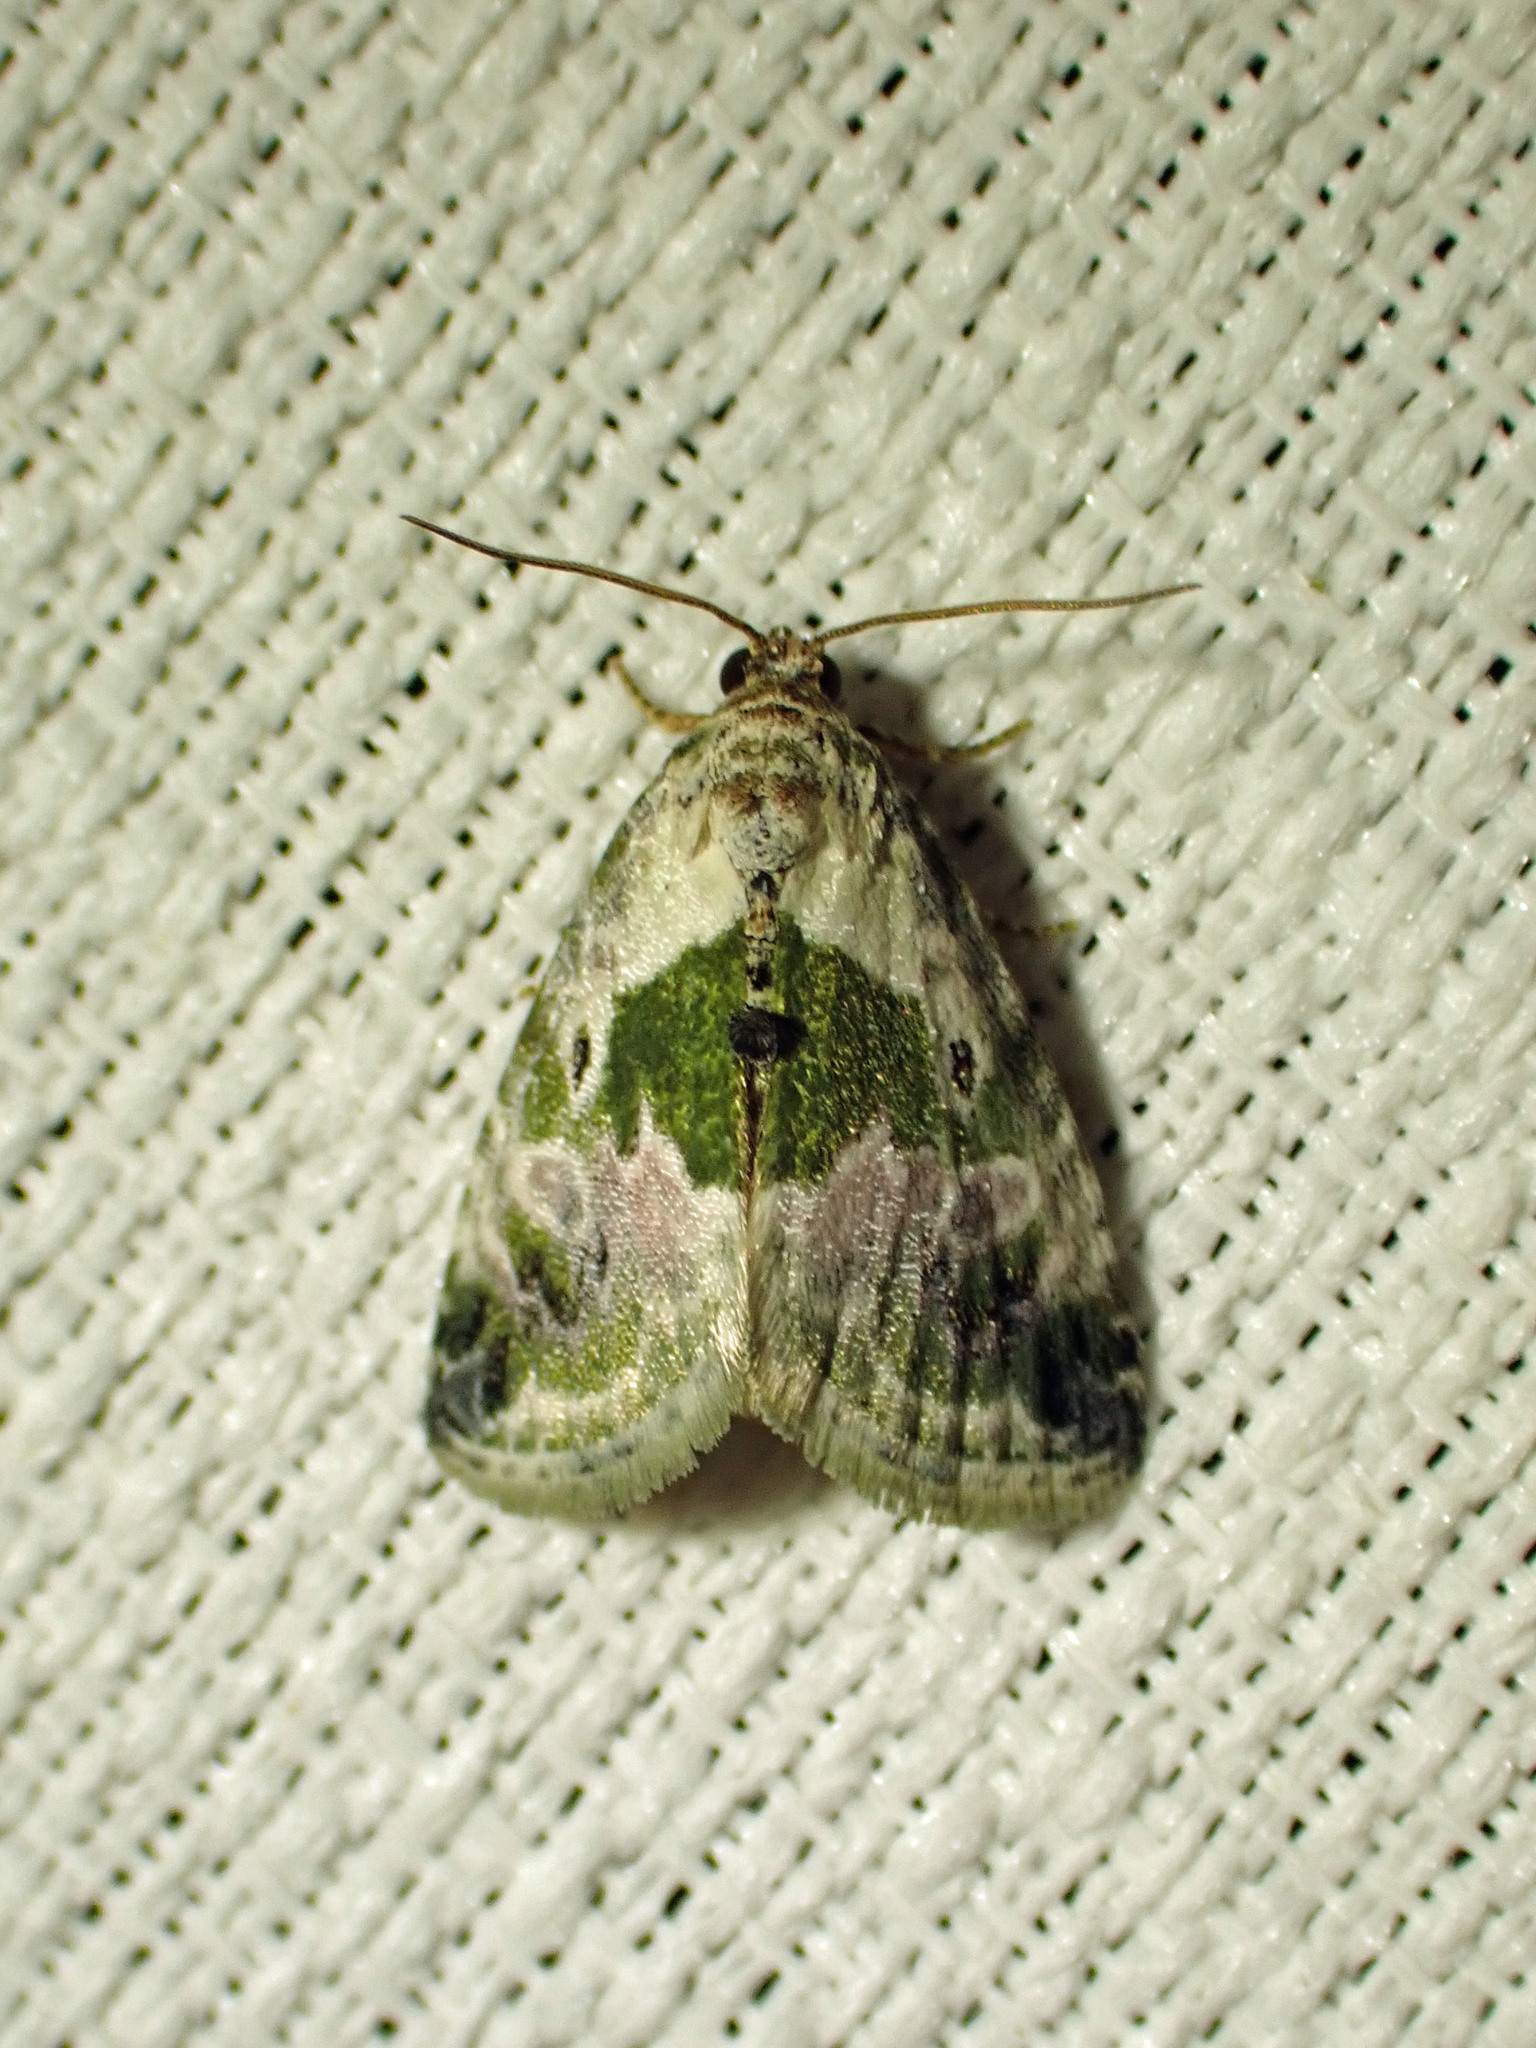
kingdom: Animalia
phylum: Arthropoda
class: Insecta
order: Lepidoptera
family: Noctuidae
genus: Maliattha
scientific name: Maliattha synochitis
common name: Black-dotted glyph
